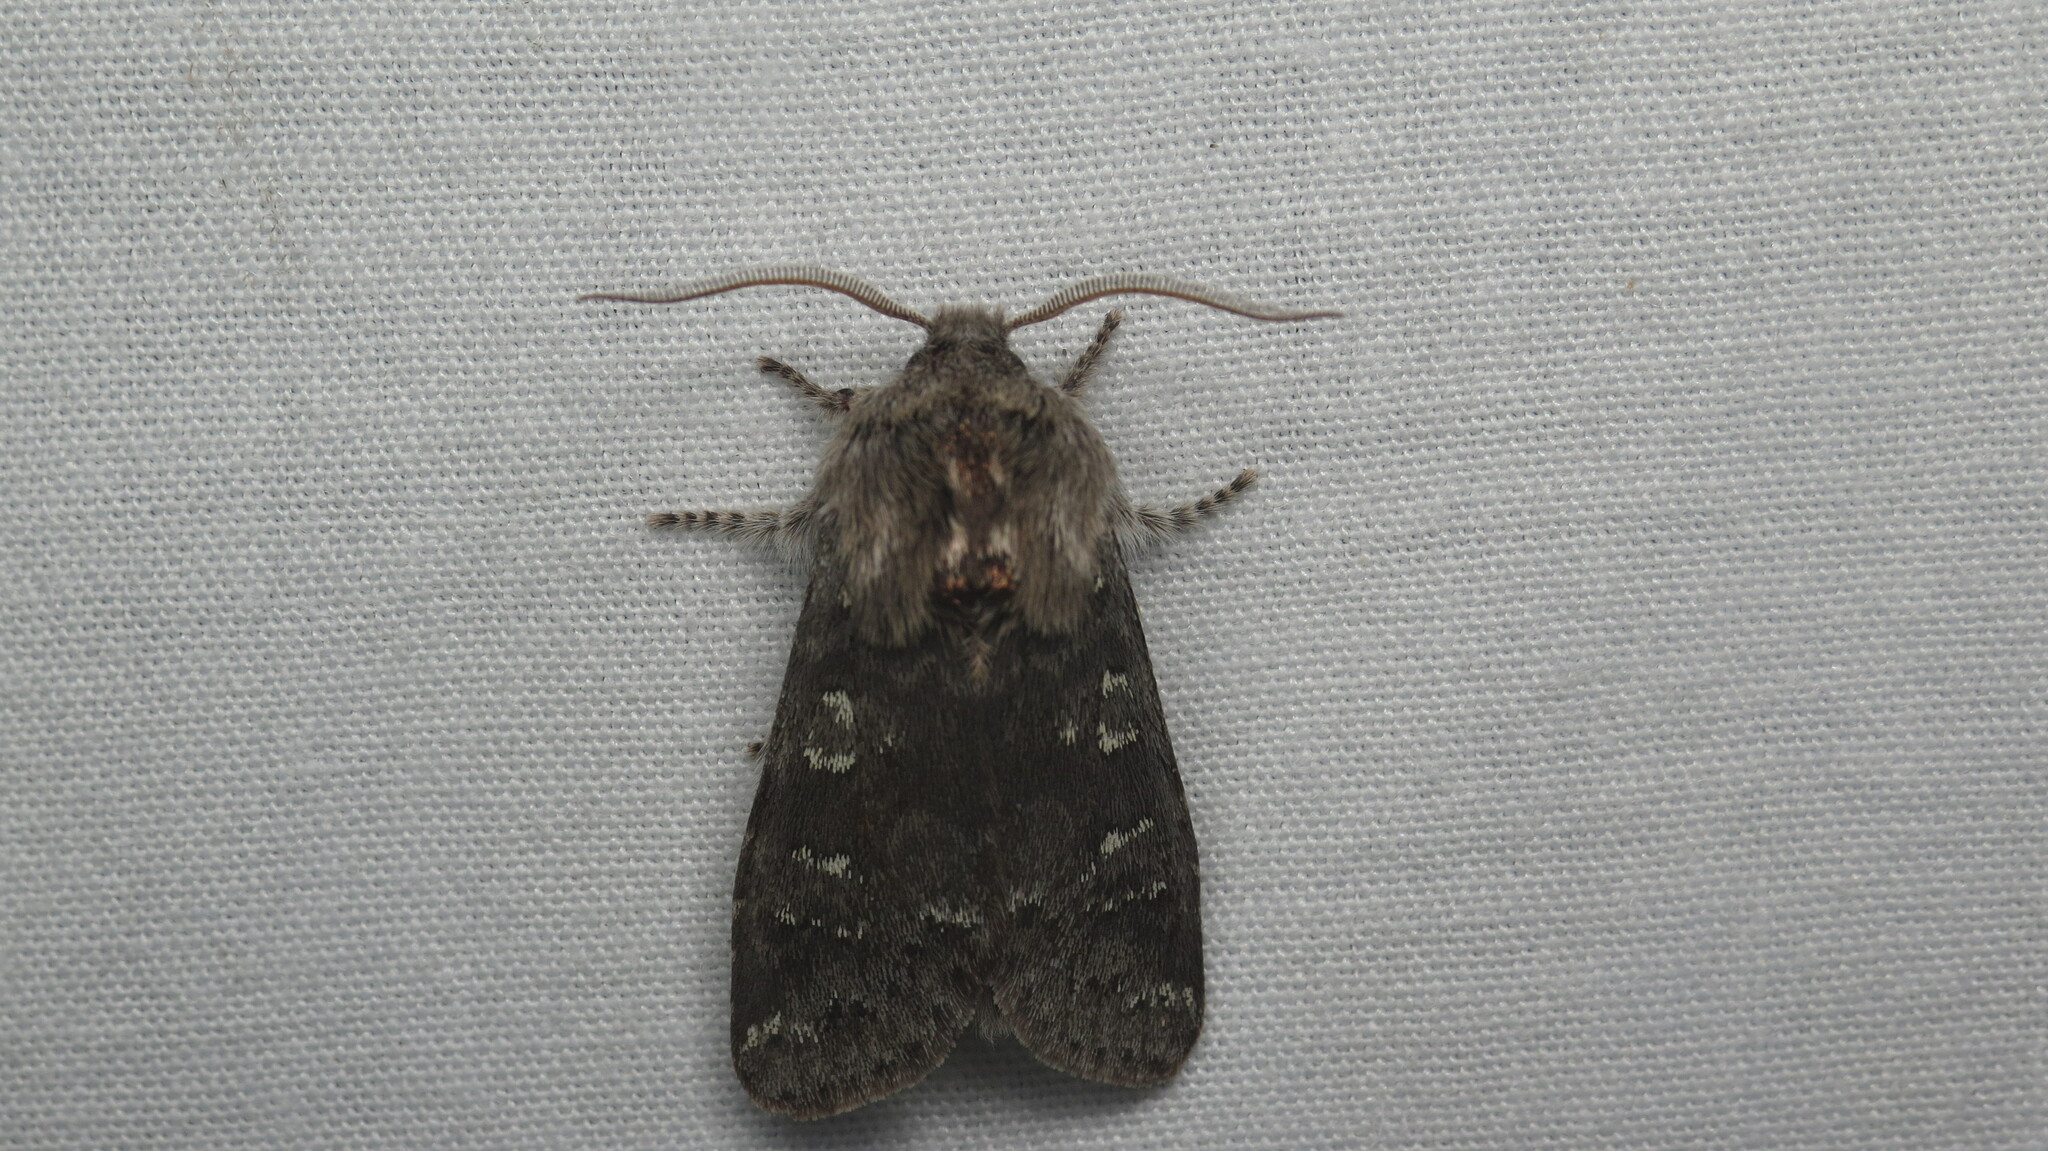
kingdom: Animalia
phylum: Arthropoda
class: Insecta
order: Lepidoptera
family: Noctuidae
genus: Psaphida
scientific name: Psaphida rolandi
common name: Roland's sallow
